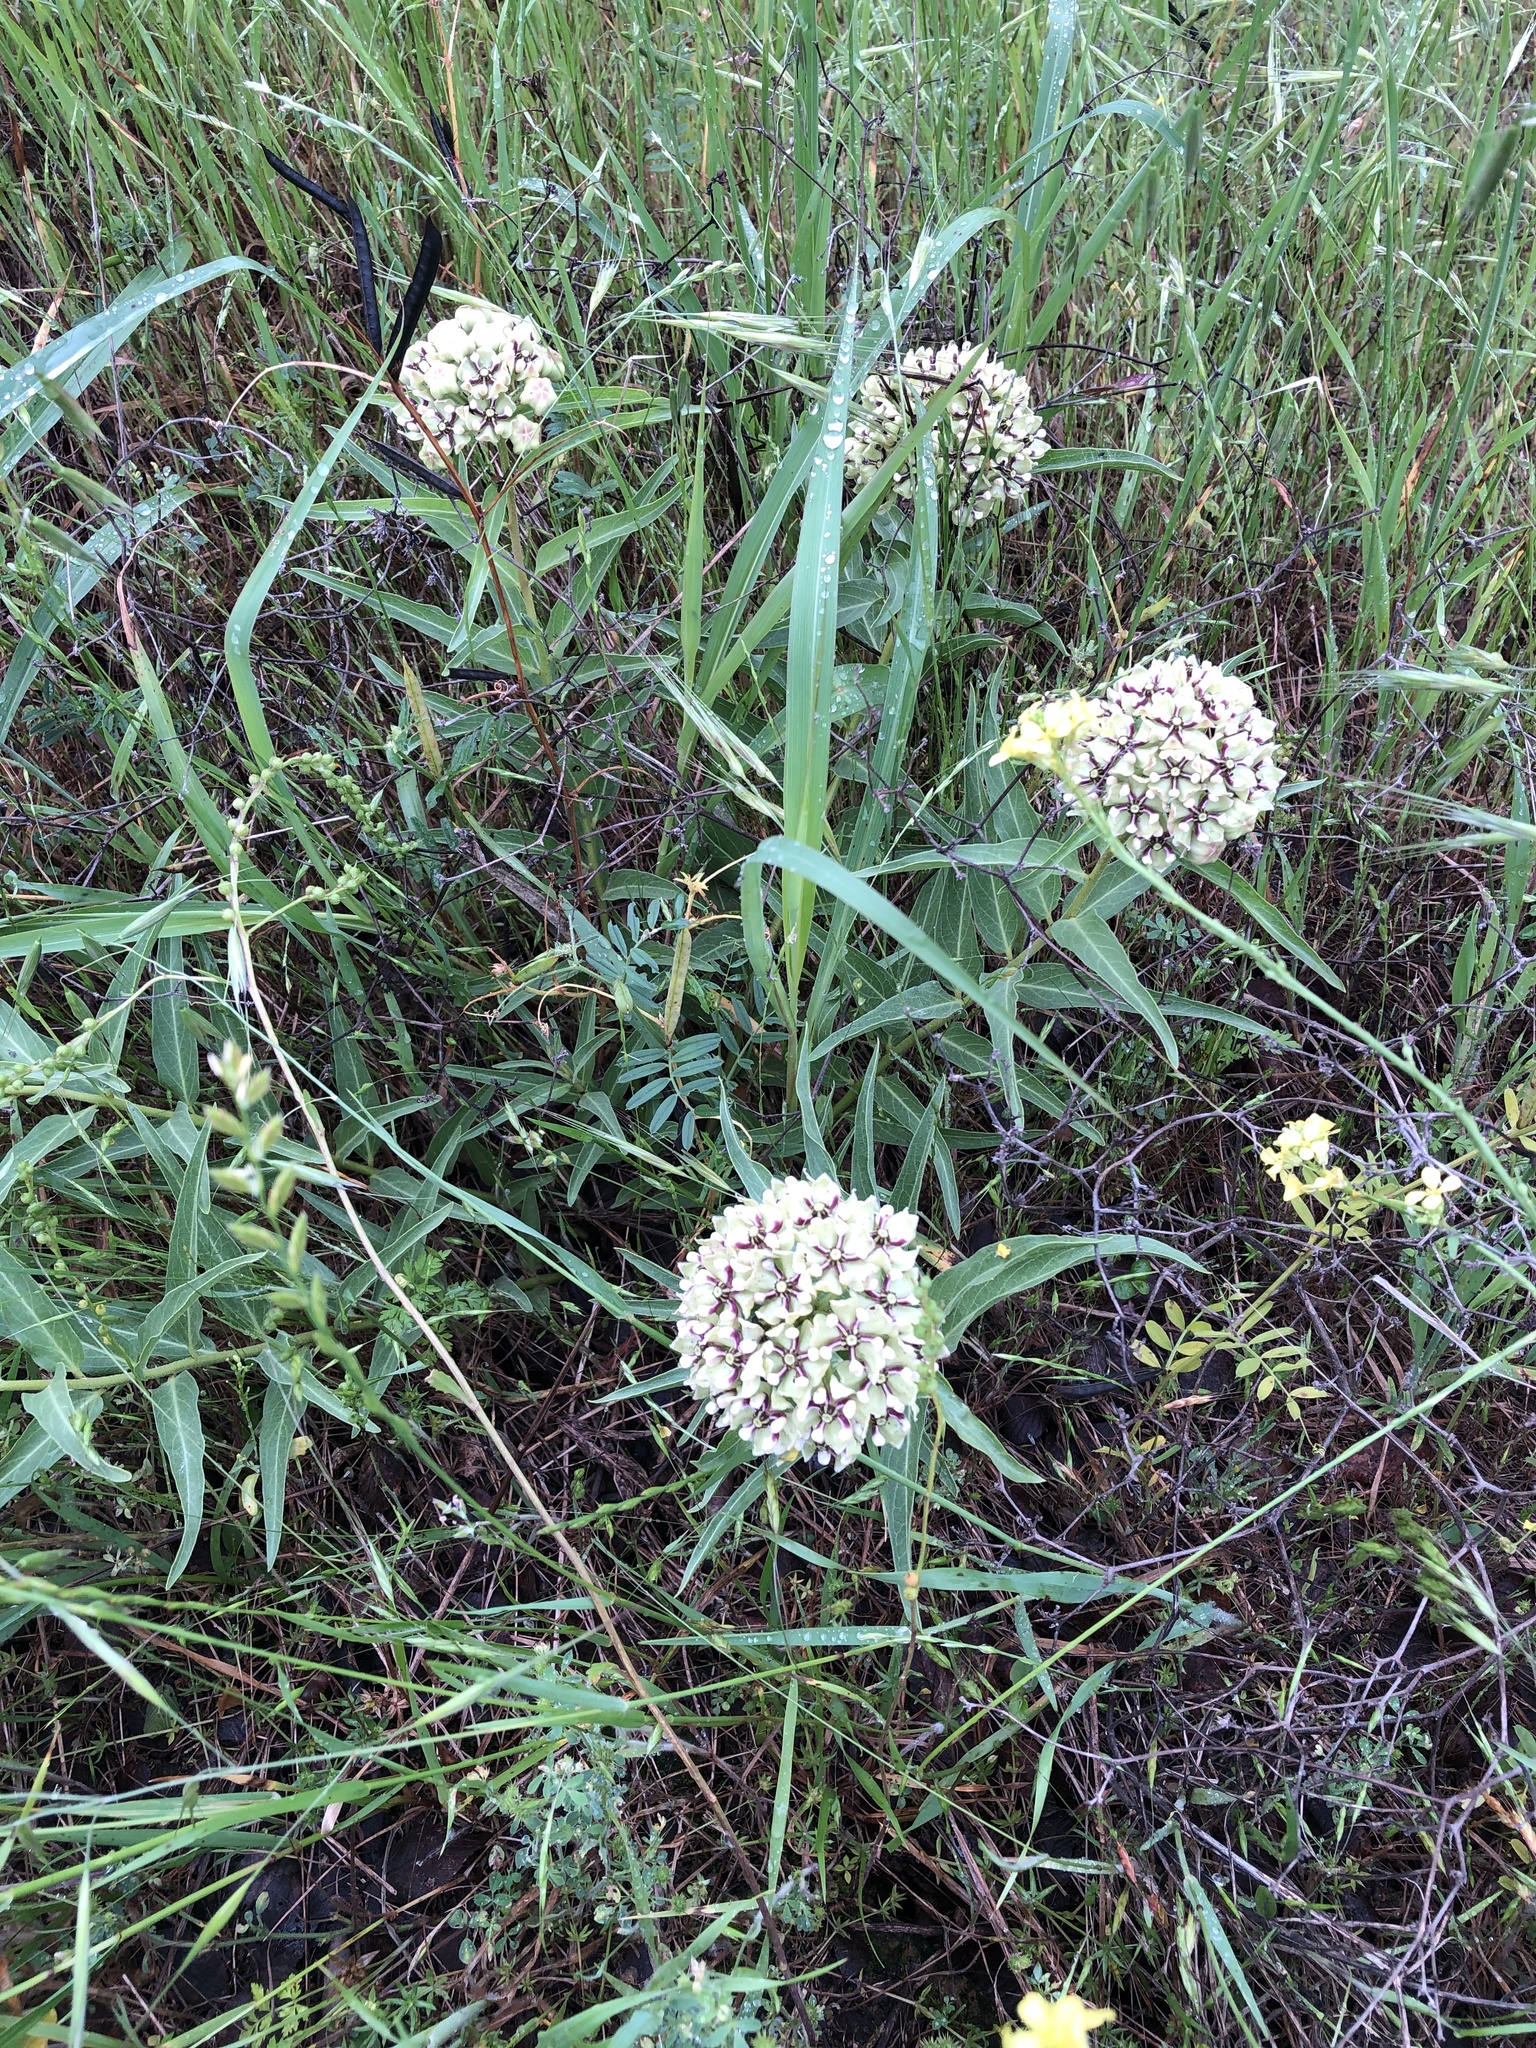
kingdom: Plantae
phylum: Tracheophyta
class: Magnoliopsida
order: Gentianales
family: Apocynaceae
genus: Asclepias
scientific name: Asclepias asperula
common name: Antelope horns
